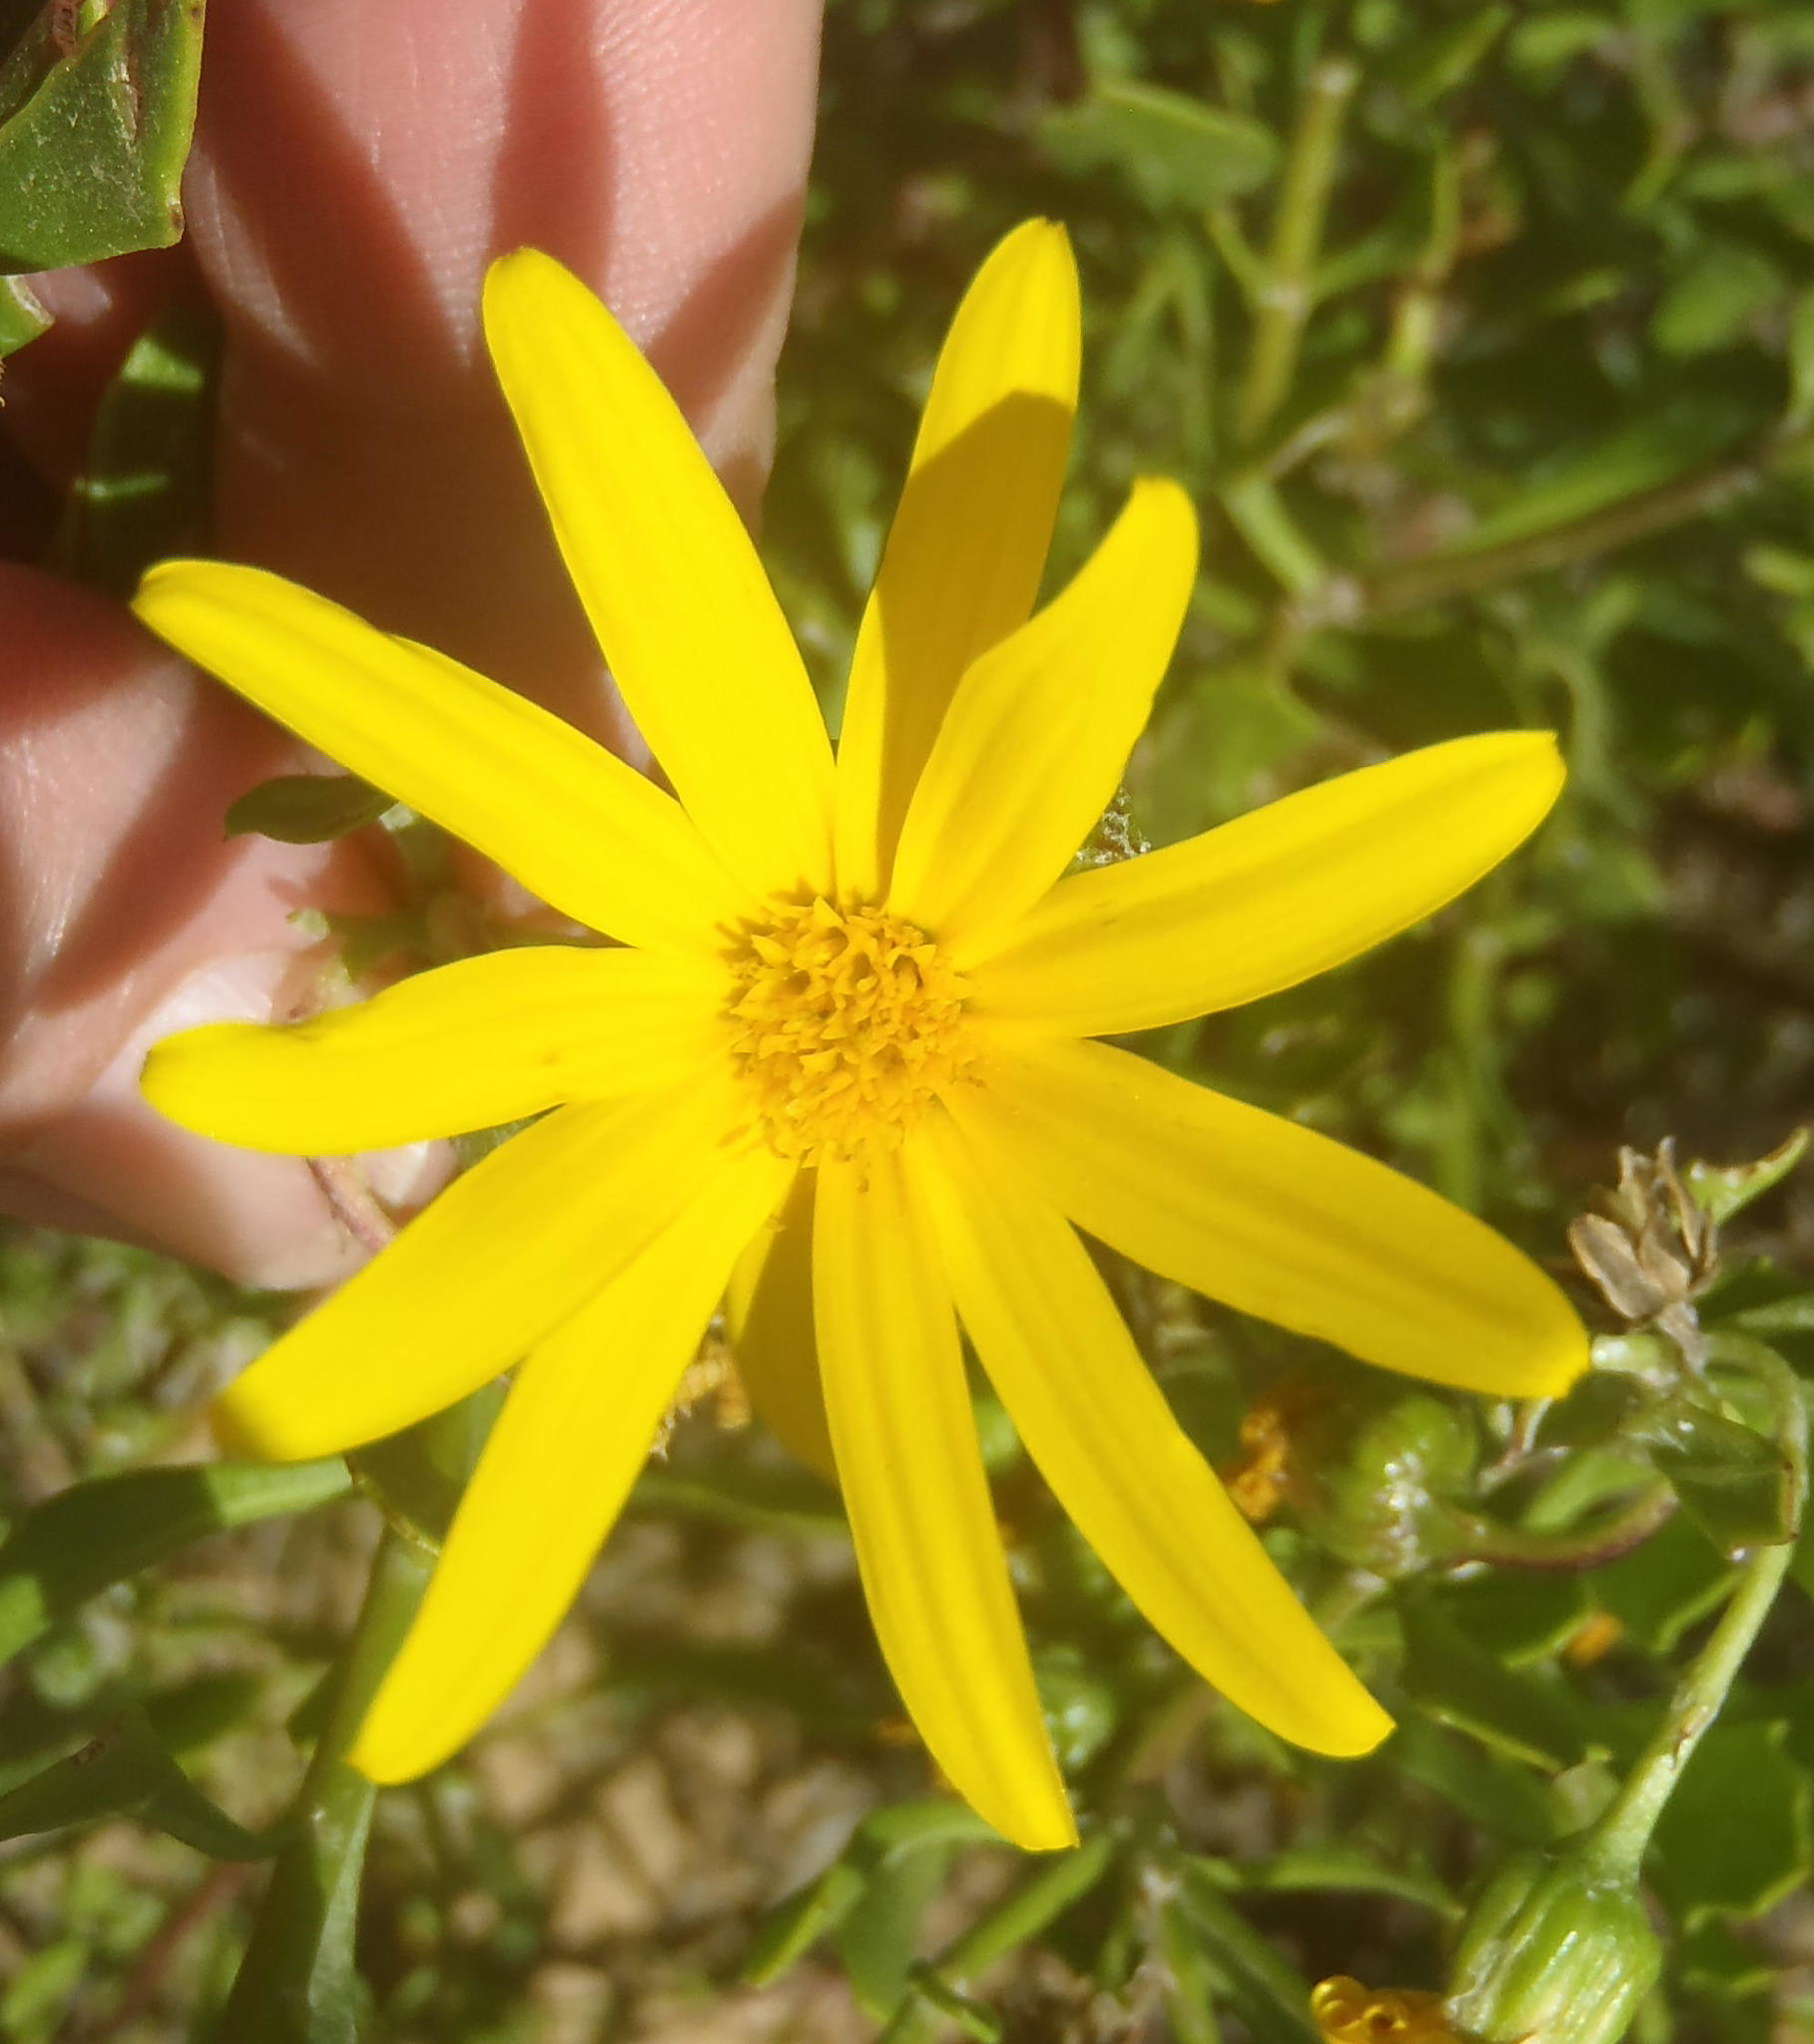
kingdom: Plantae
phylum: Tracheophyta
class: Magnoliopsida
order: Asterales
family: Asteraceae
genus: Osteospermum
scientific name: Osteospermum moniliferum
